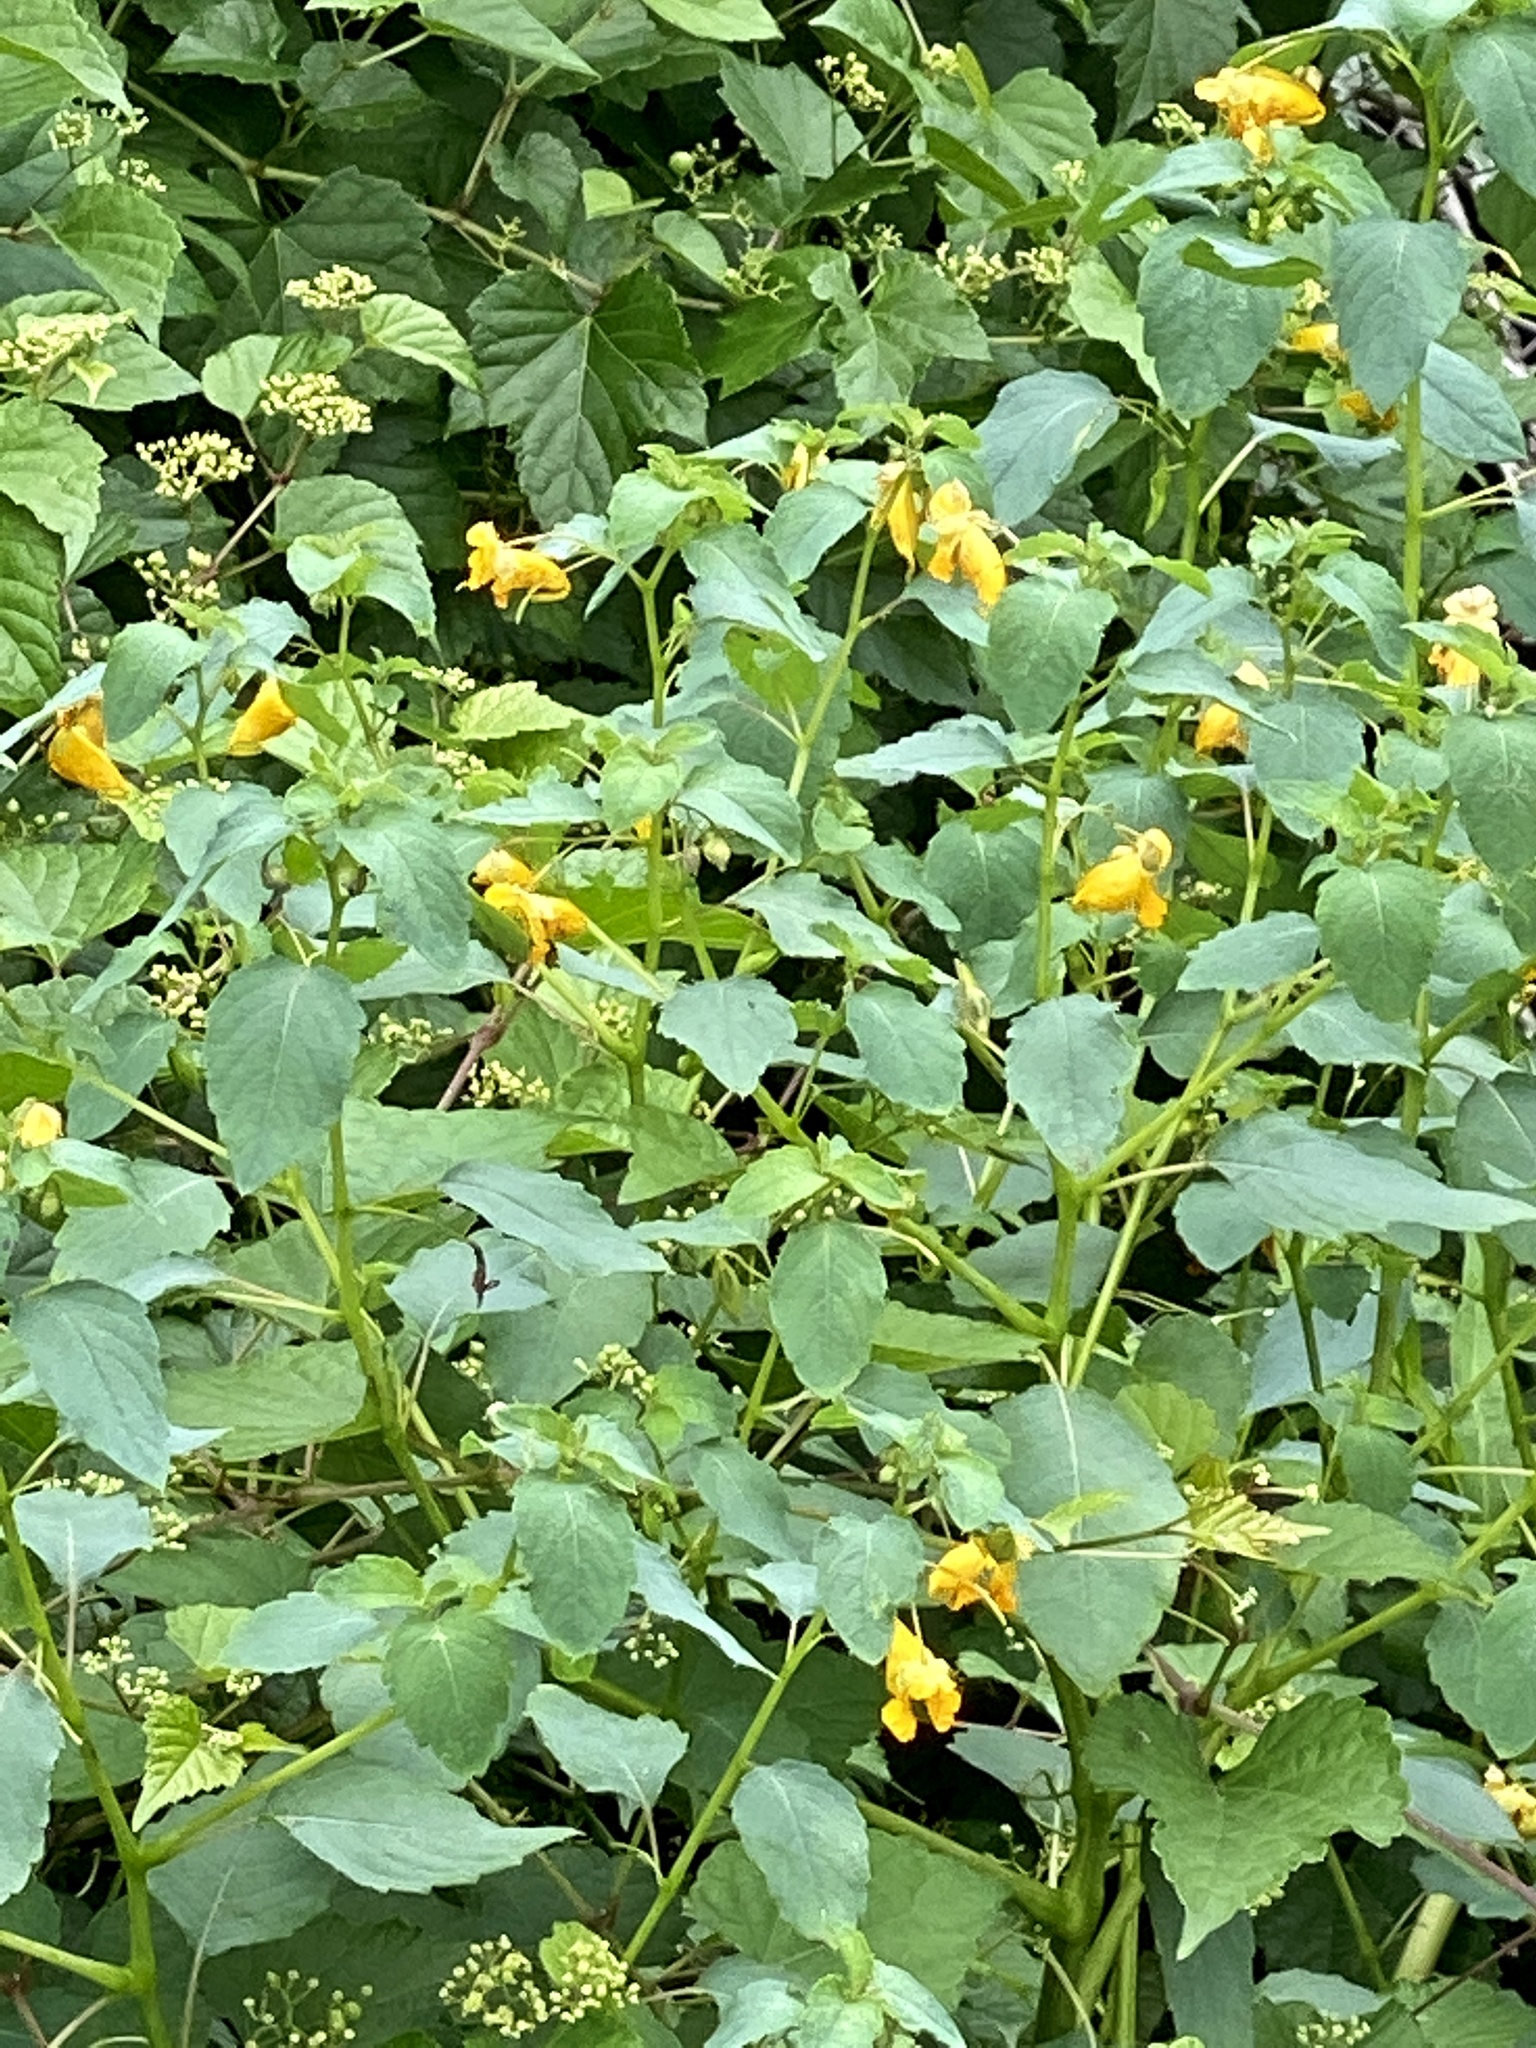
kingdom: Plantae
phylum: Tracheophyta
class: Magnoliopsida
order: Ericales
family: Balsaminaceae
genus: Impatiens
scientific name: Impatiens capensis
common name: Orange balsam
